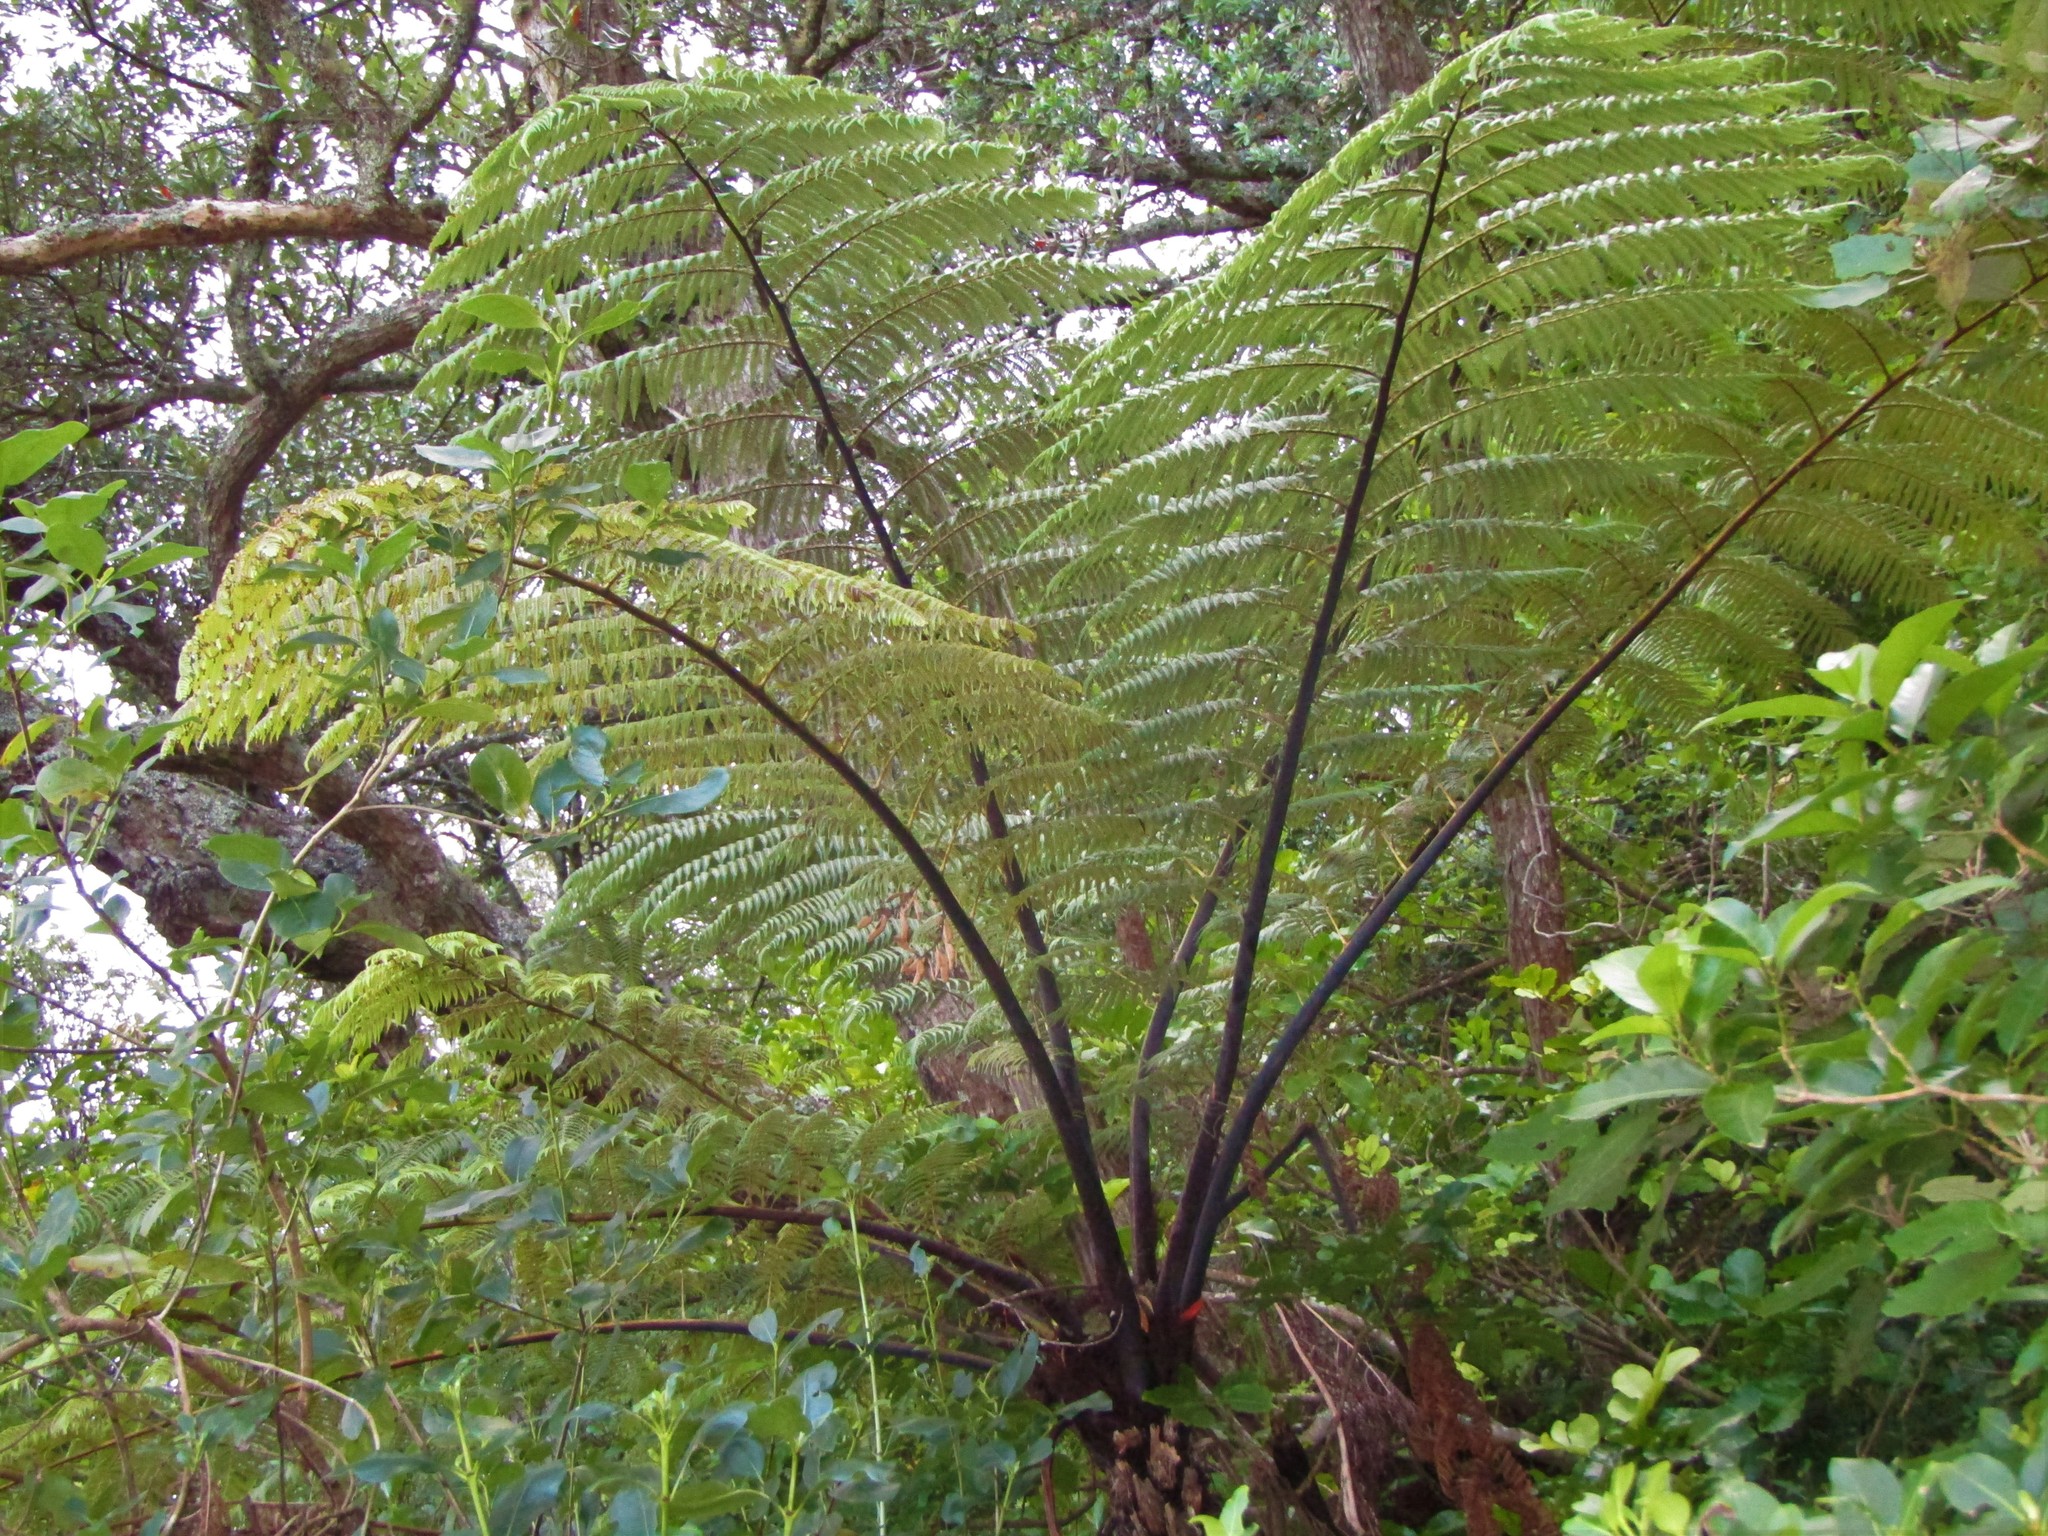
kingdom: Plantae
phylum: Tracheophyta
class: Polypodiopsida
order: Cyatheales
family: Cyatheaceae
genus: Sphaeropteris
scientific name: Sphaeropteris medullaris
